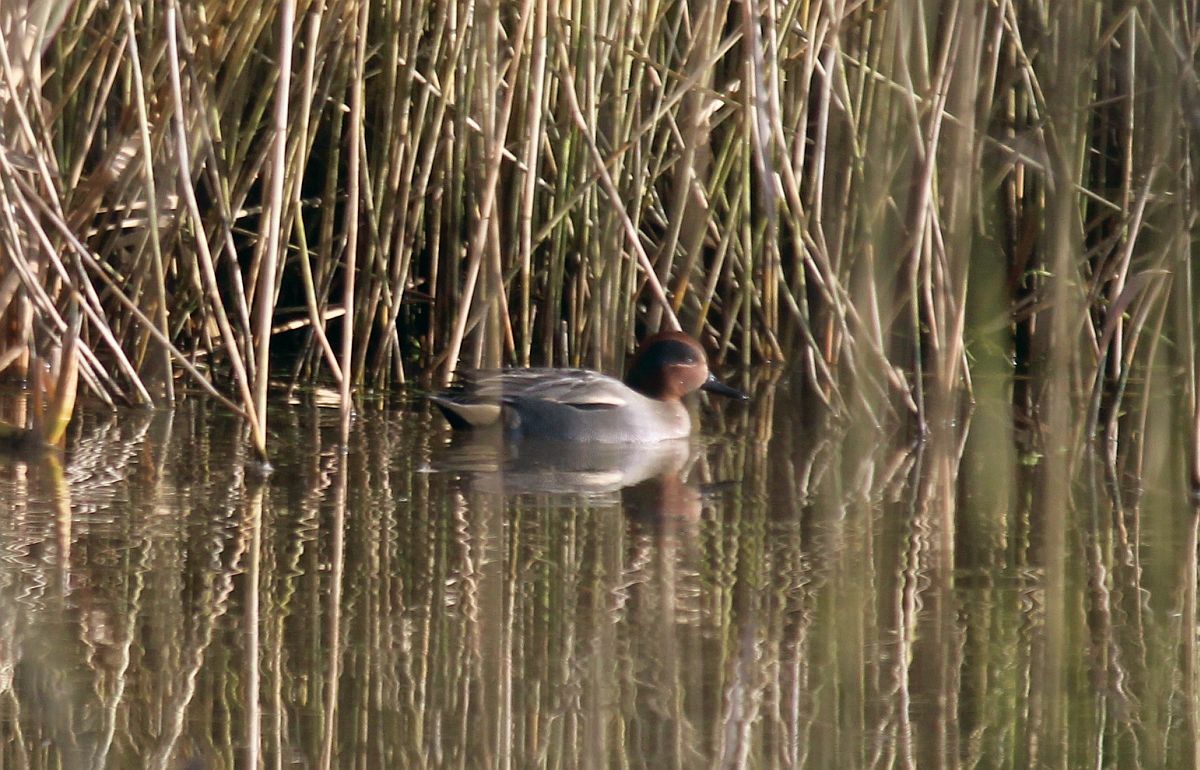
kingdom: Animalia
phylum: Chordata
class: Aves
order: Anseriformes
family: Anatidae
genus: Anas
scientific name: Anas crecca
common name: Eurasian teal
